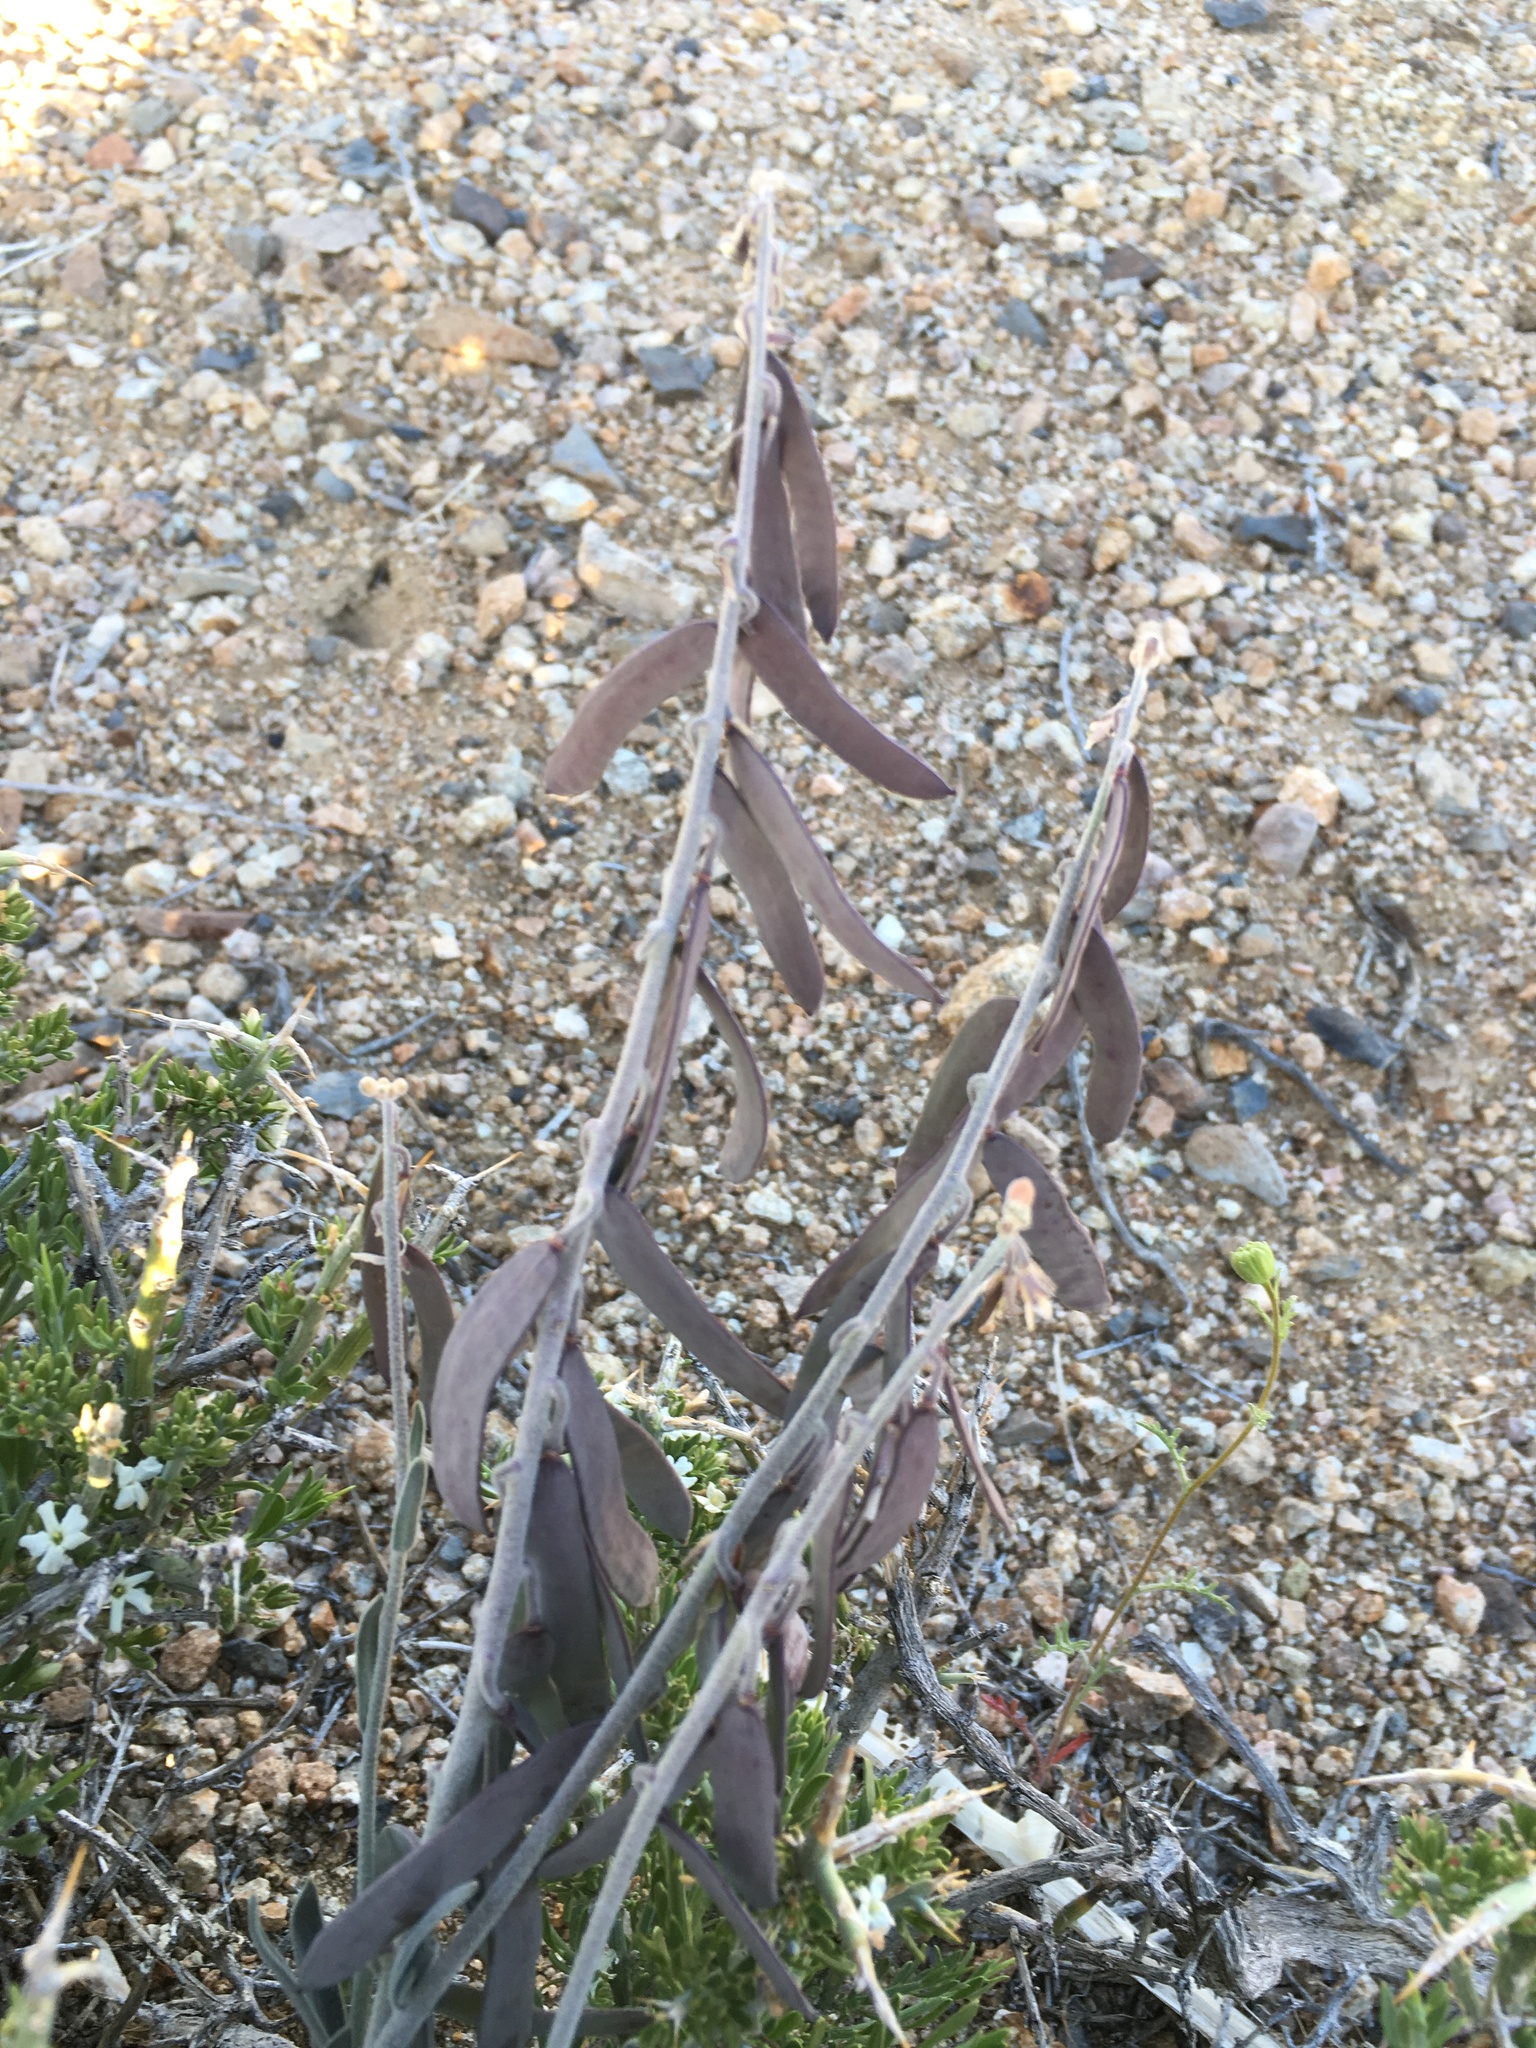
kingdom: Plantae
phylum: Tracheophyta
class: Magnoliopsida
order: Brassicales
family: Brassicaceae
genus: Boechera
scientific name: Boechera glaucovalvula
